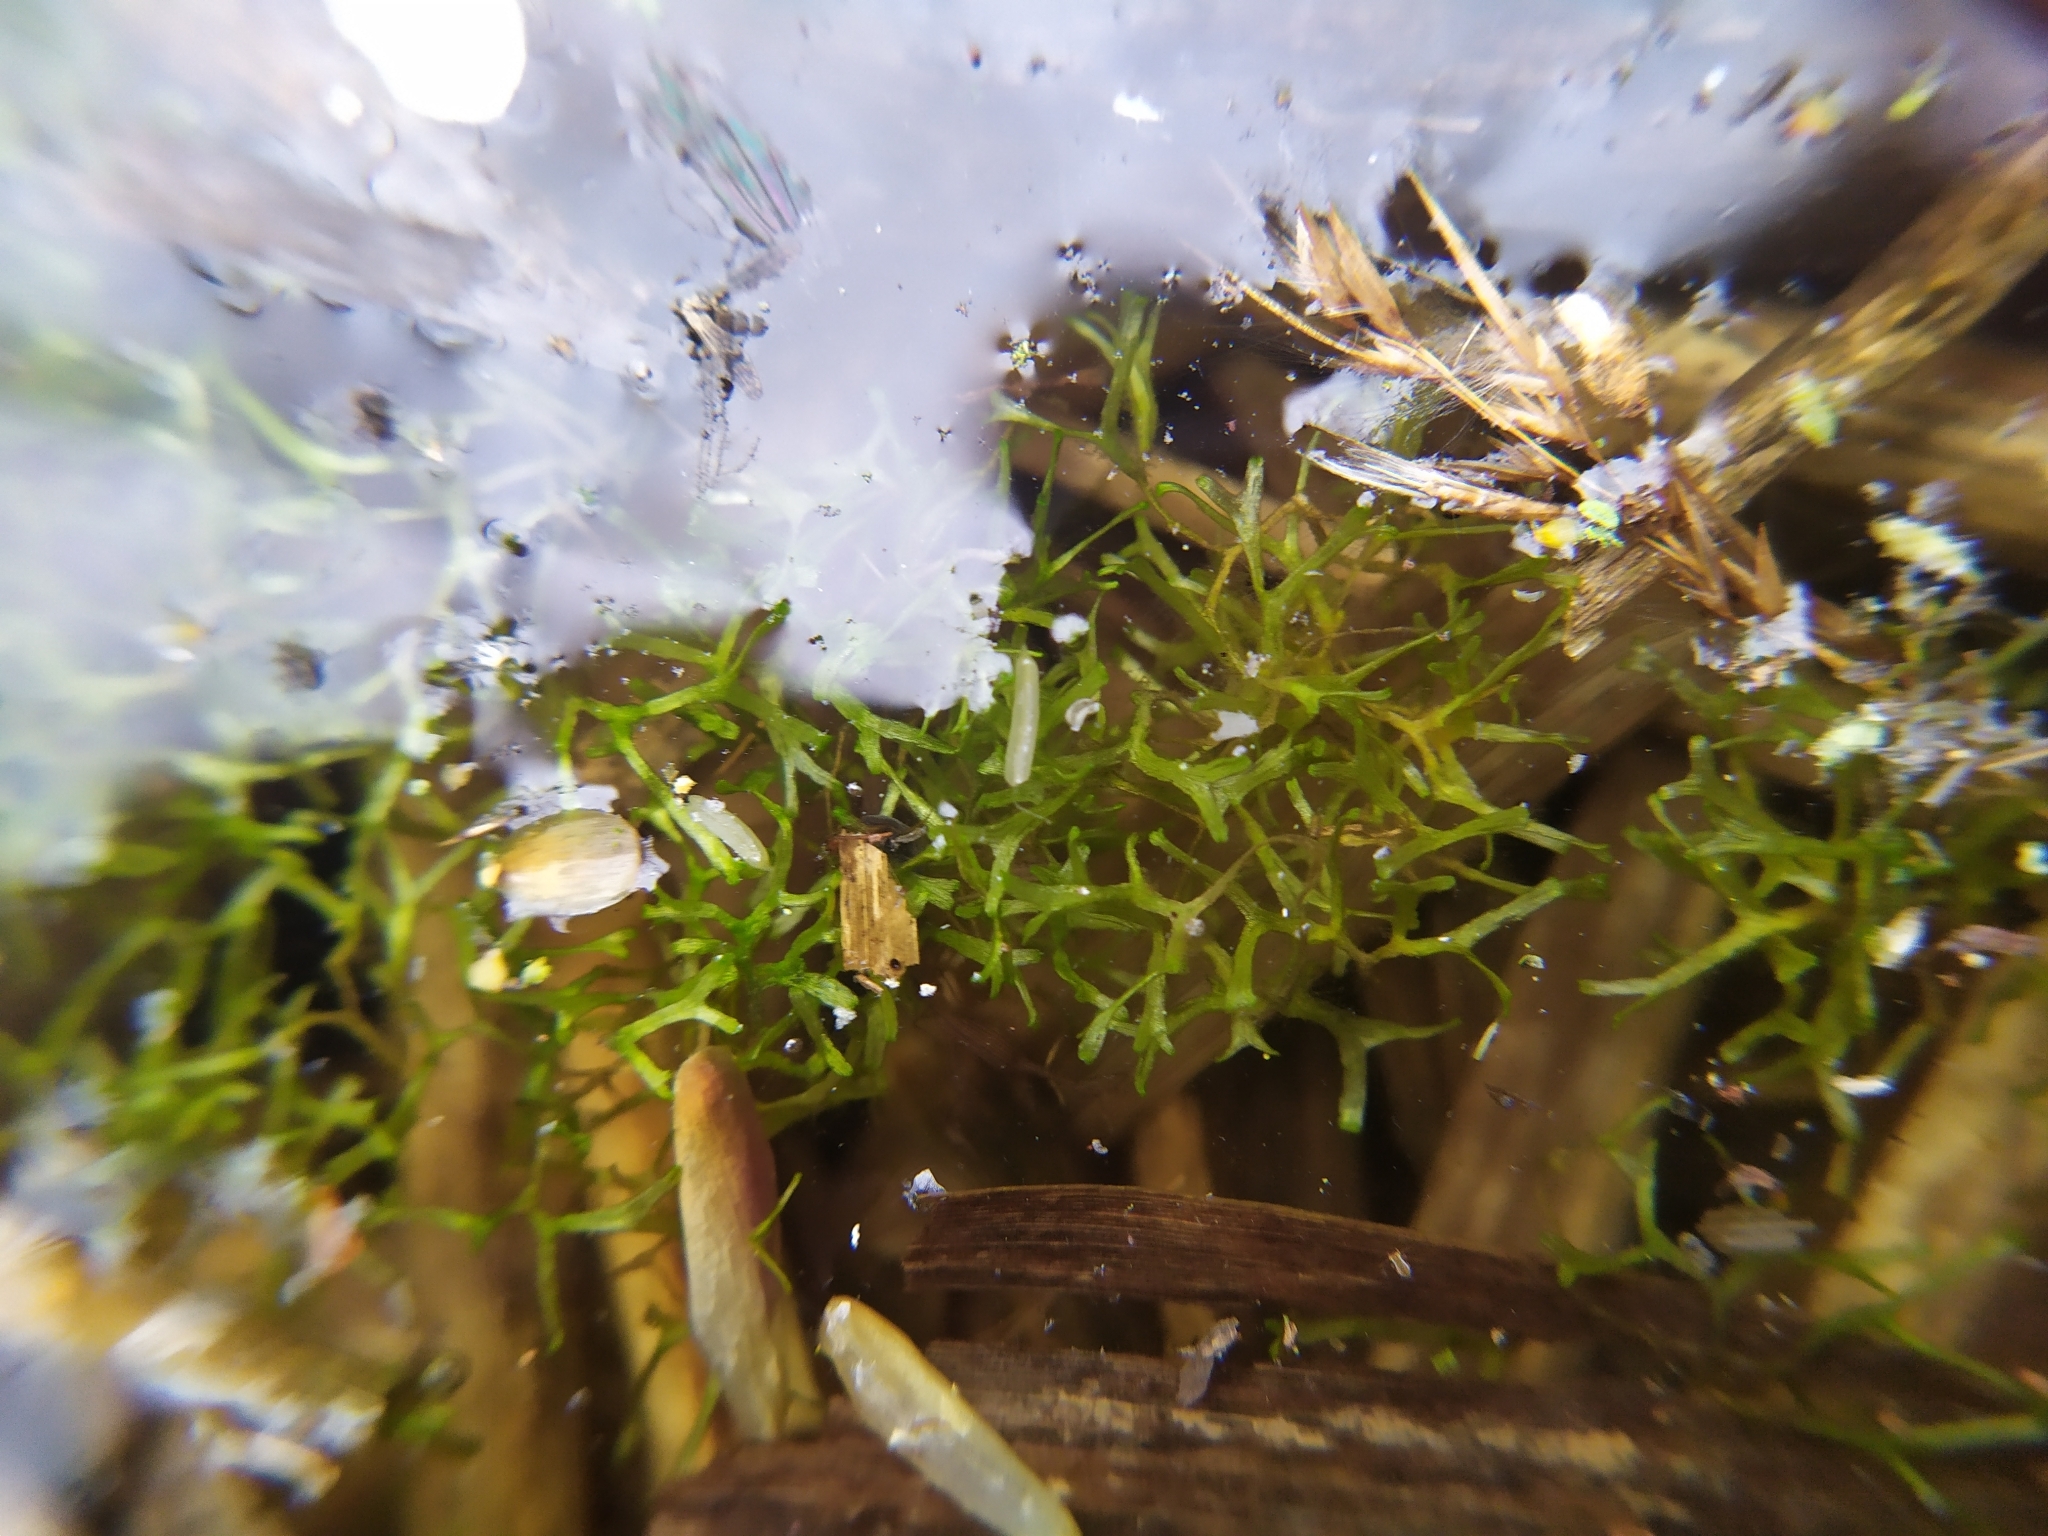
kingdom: Plantae
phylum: Marchantiophyta
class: Marchantiopsida
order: Marchantiales
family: Ricciaceae
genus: Riccia
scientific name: Riccia fluitans
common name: Floating crystalwort
